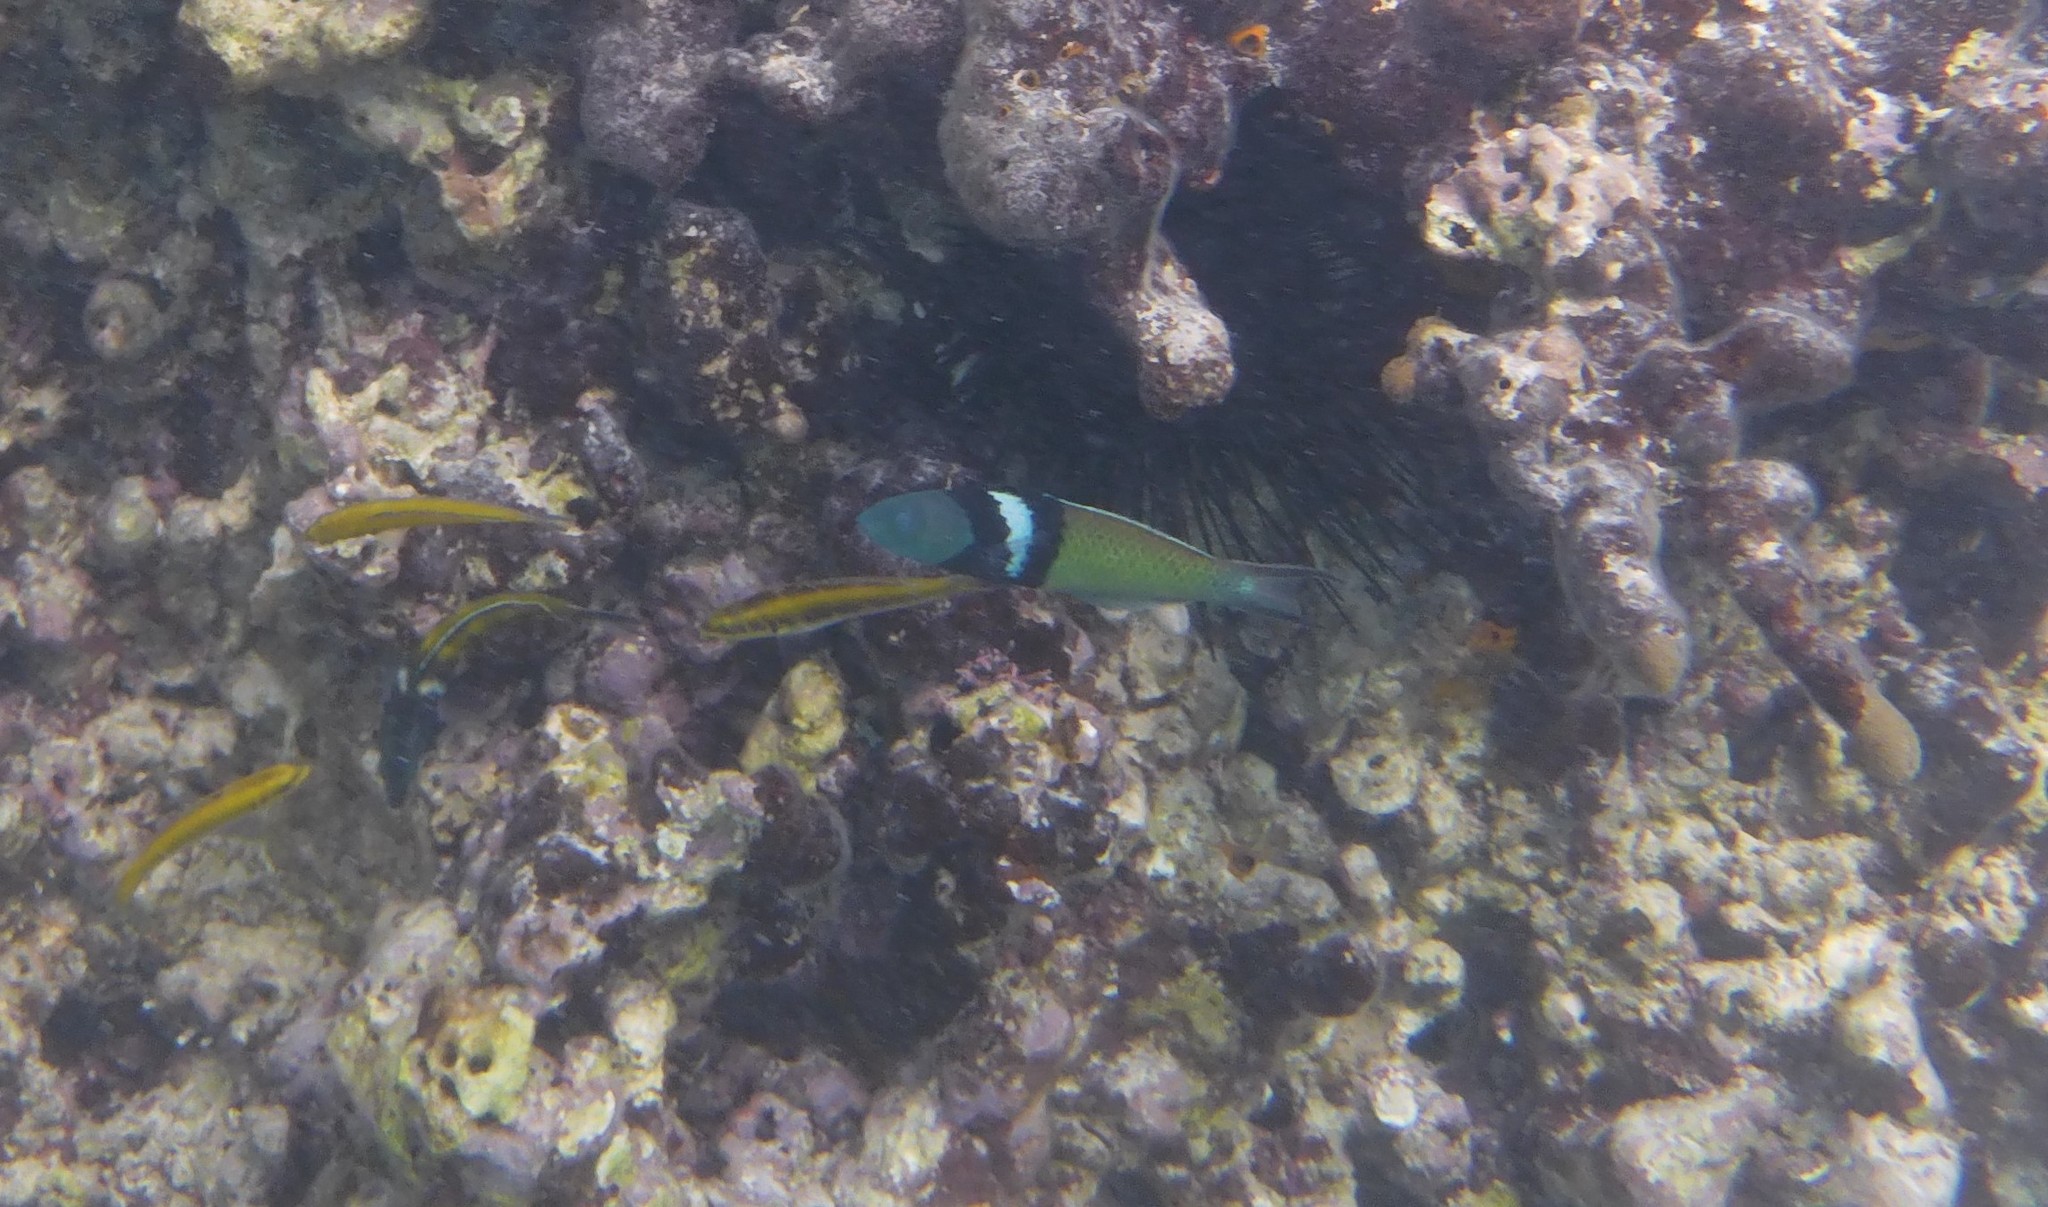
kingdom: Animalia
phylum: Chordata
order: Perciformes
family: Labridae
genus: Thalassoma
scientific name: Thalassoma bifasciatum
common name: Bluehead wrasse
